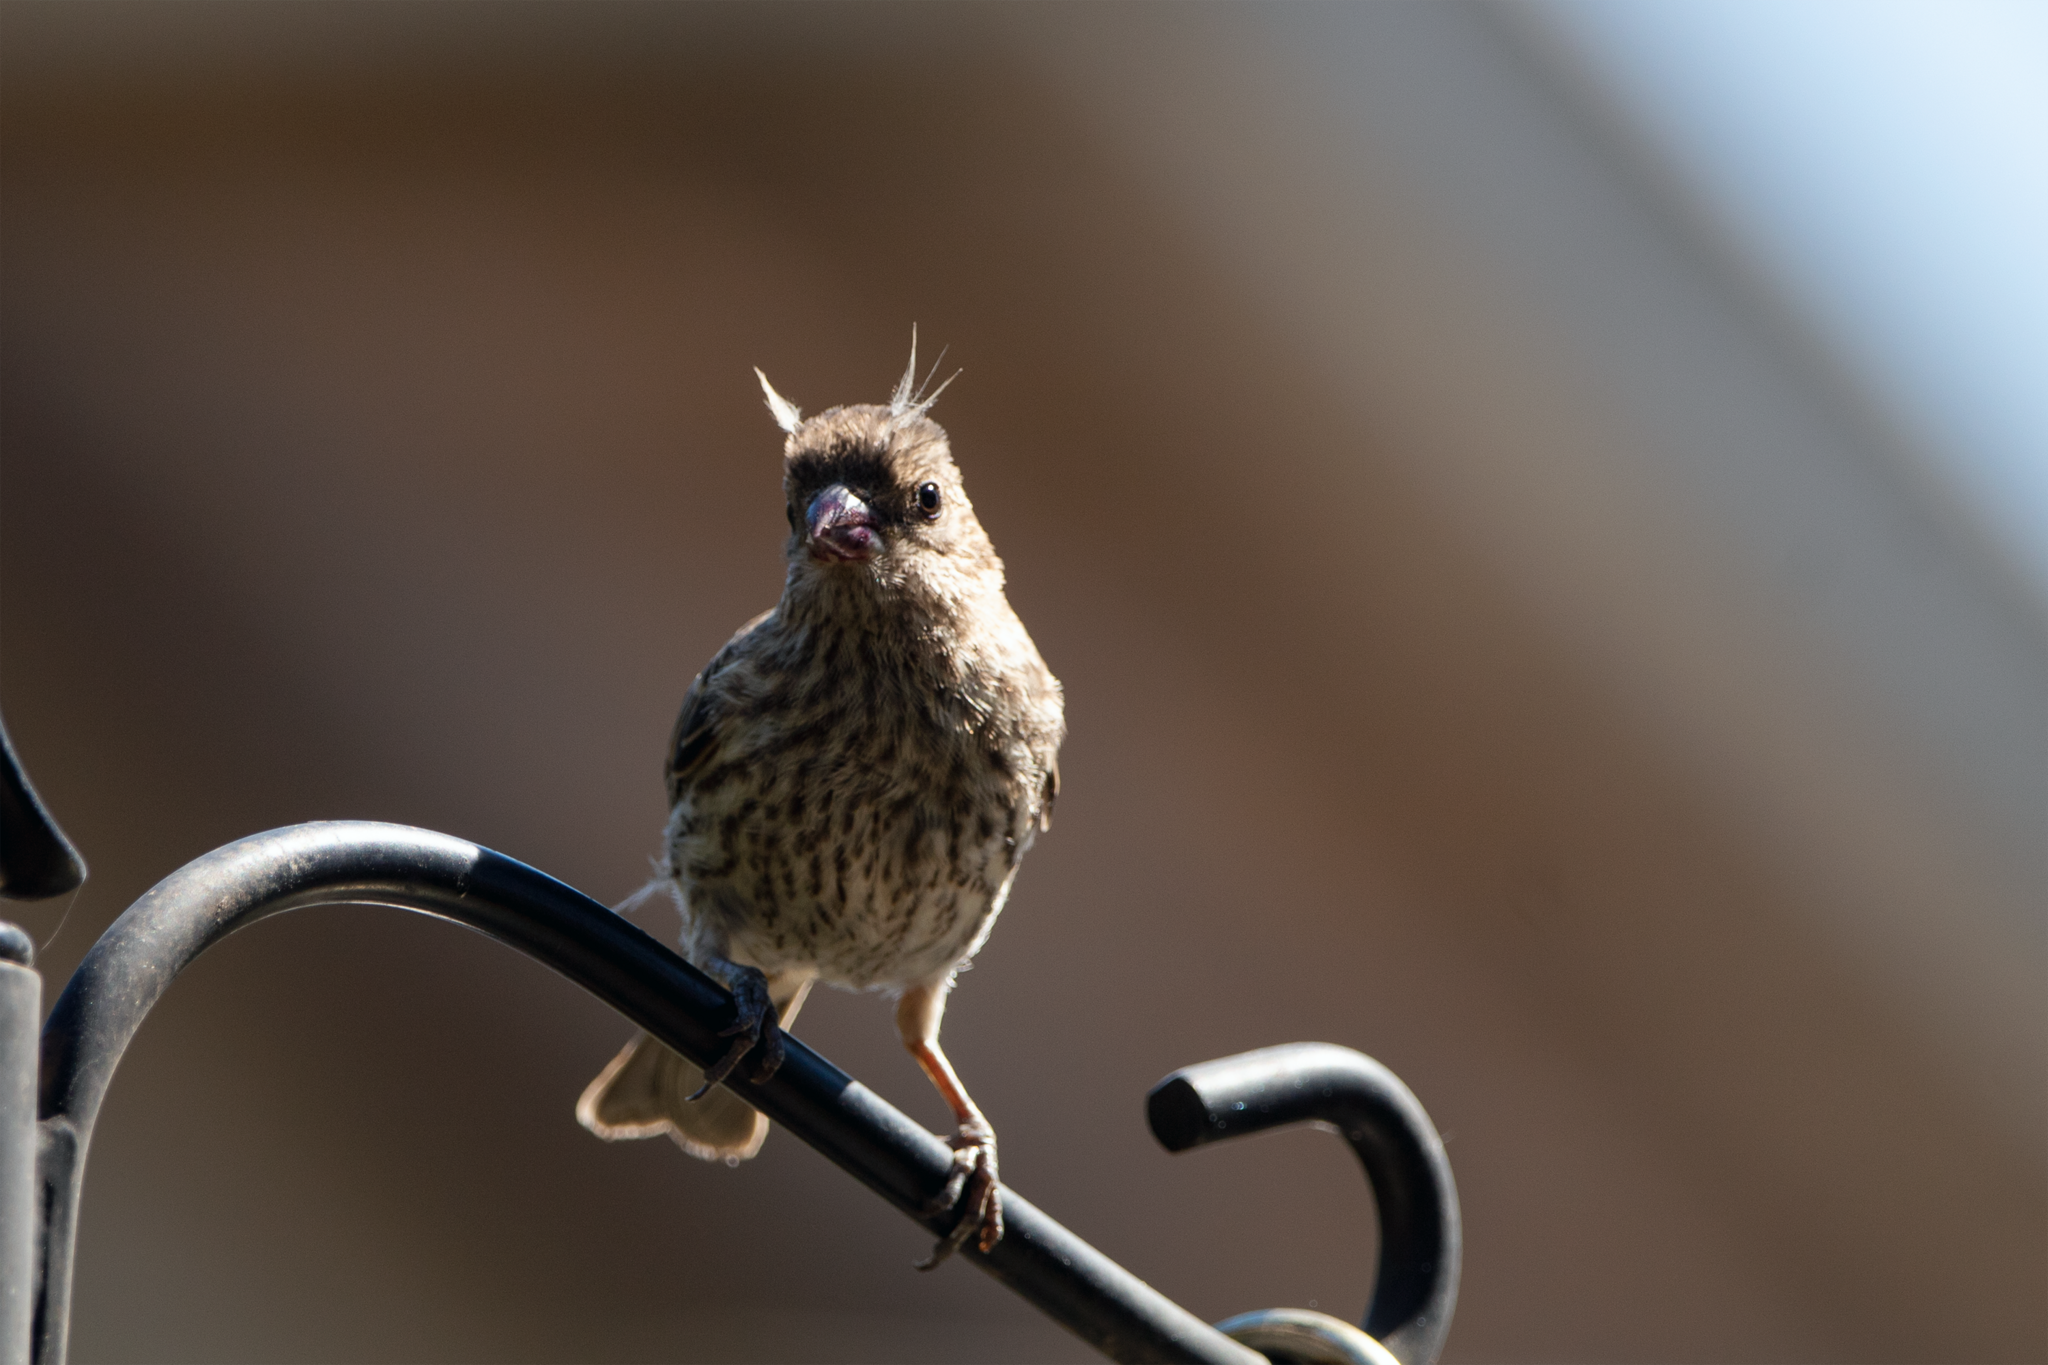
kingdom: Animalia
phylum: Chordata
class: Aves
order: Passeriformes
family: Fringillidae
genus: Haemorhous
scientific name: Haemorhous mexicanus
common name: House finch
